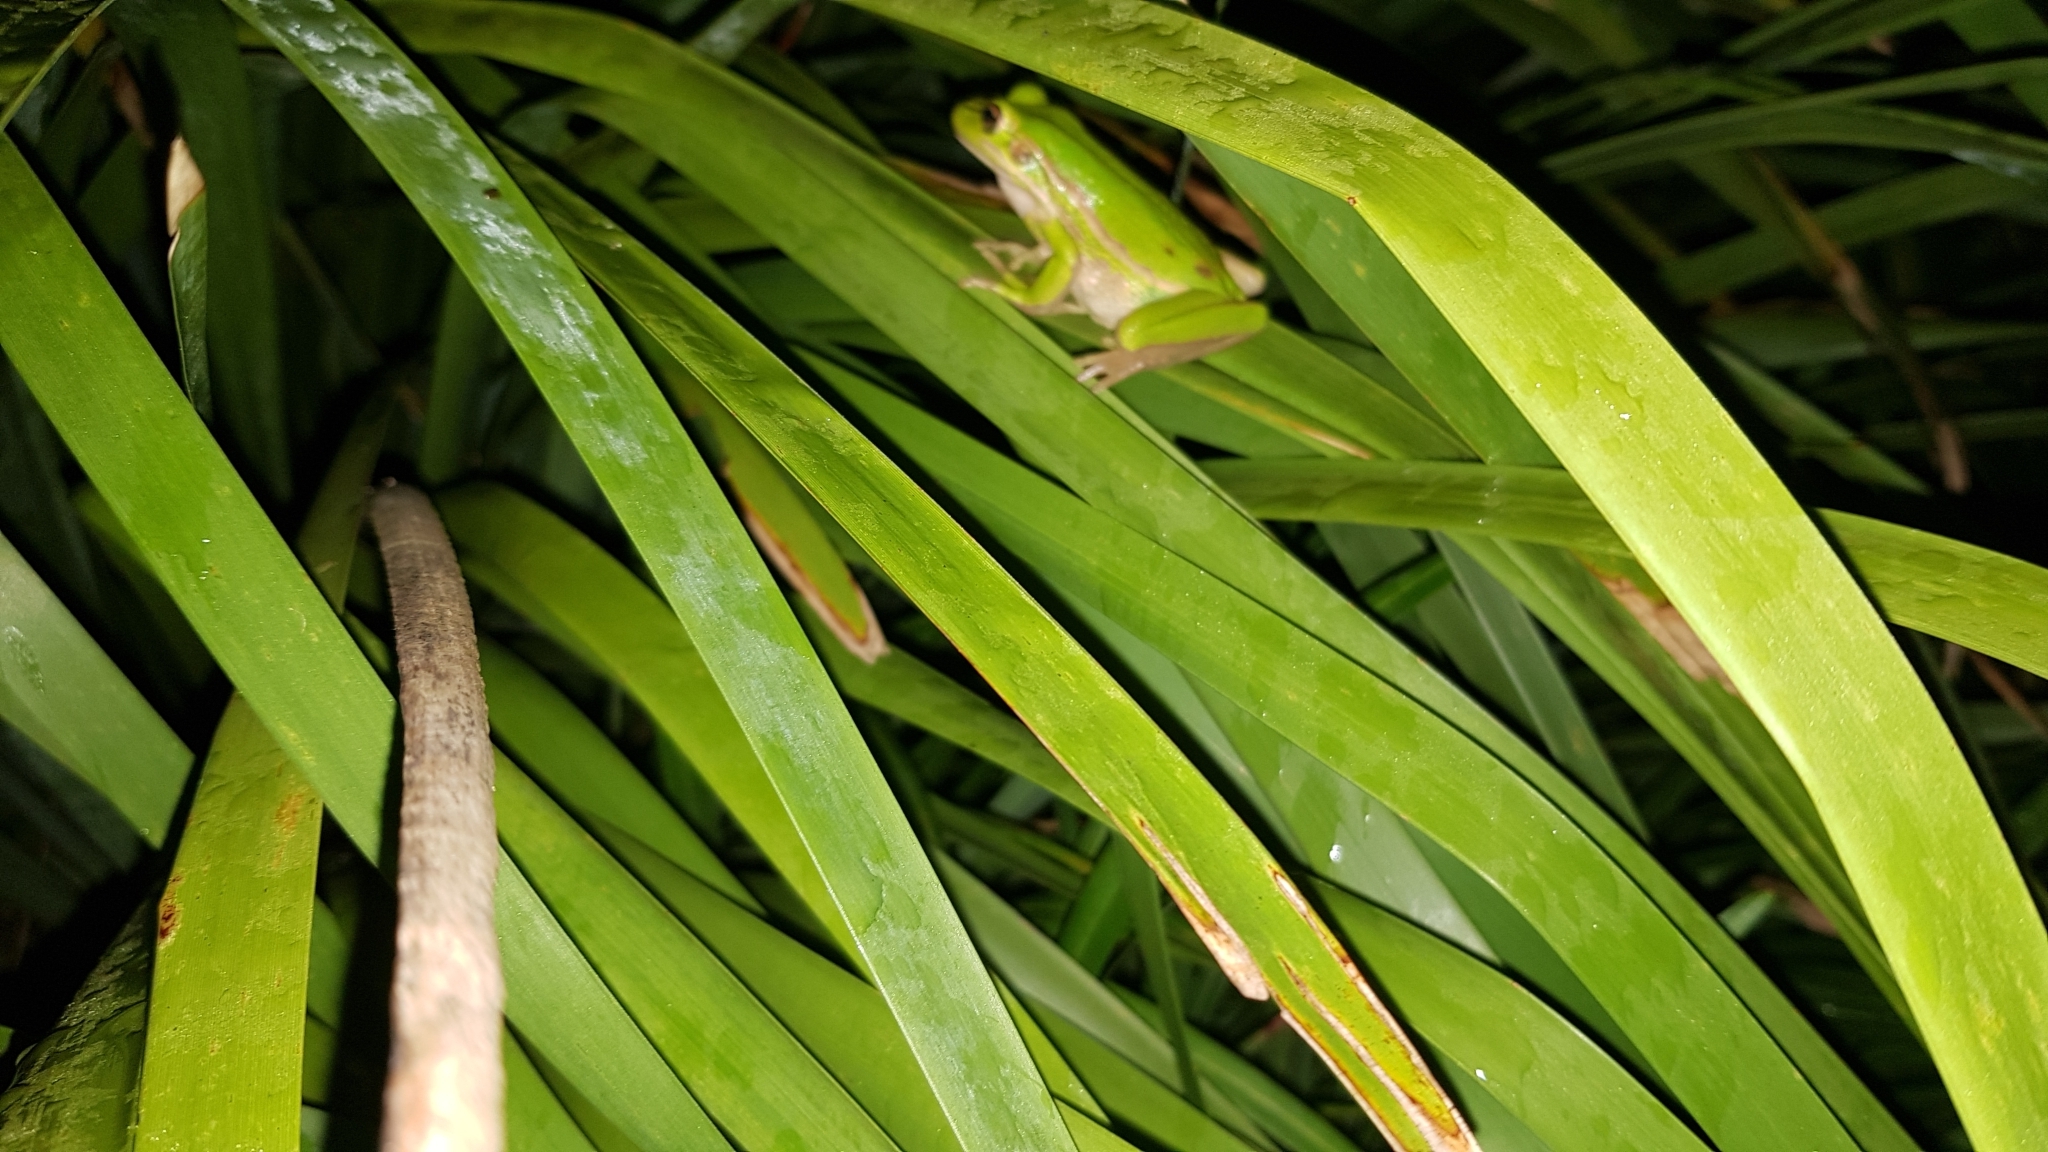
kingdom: Animalia
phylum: Chordata
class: Amphibia
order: Anura
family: Pelodryadidae
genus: Ranoidea
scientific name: Ranoidea aurea
